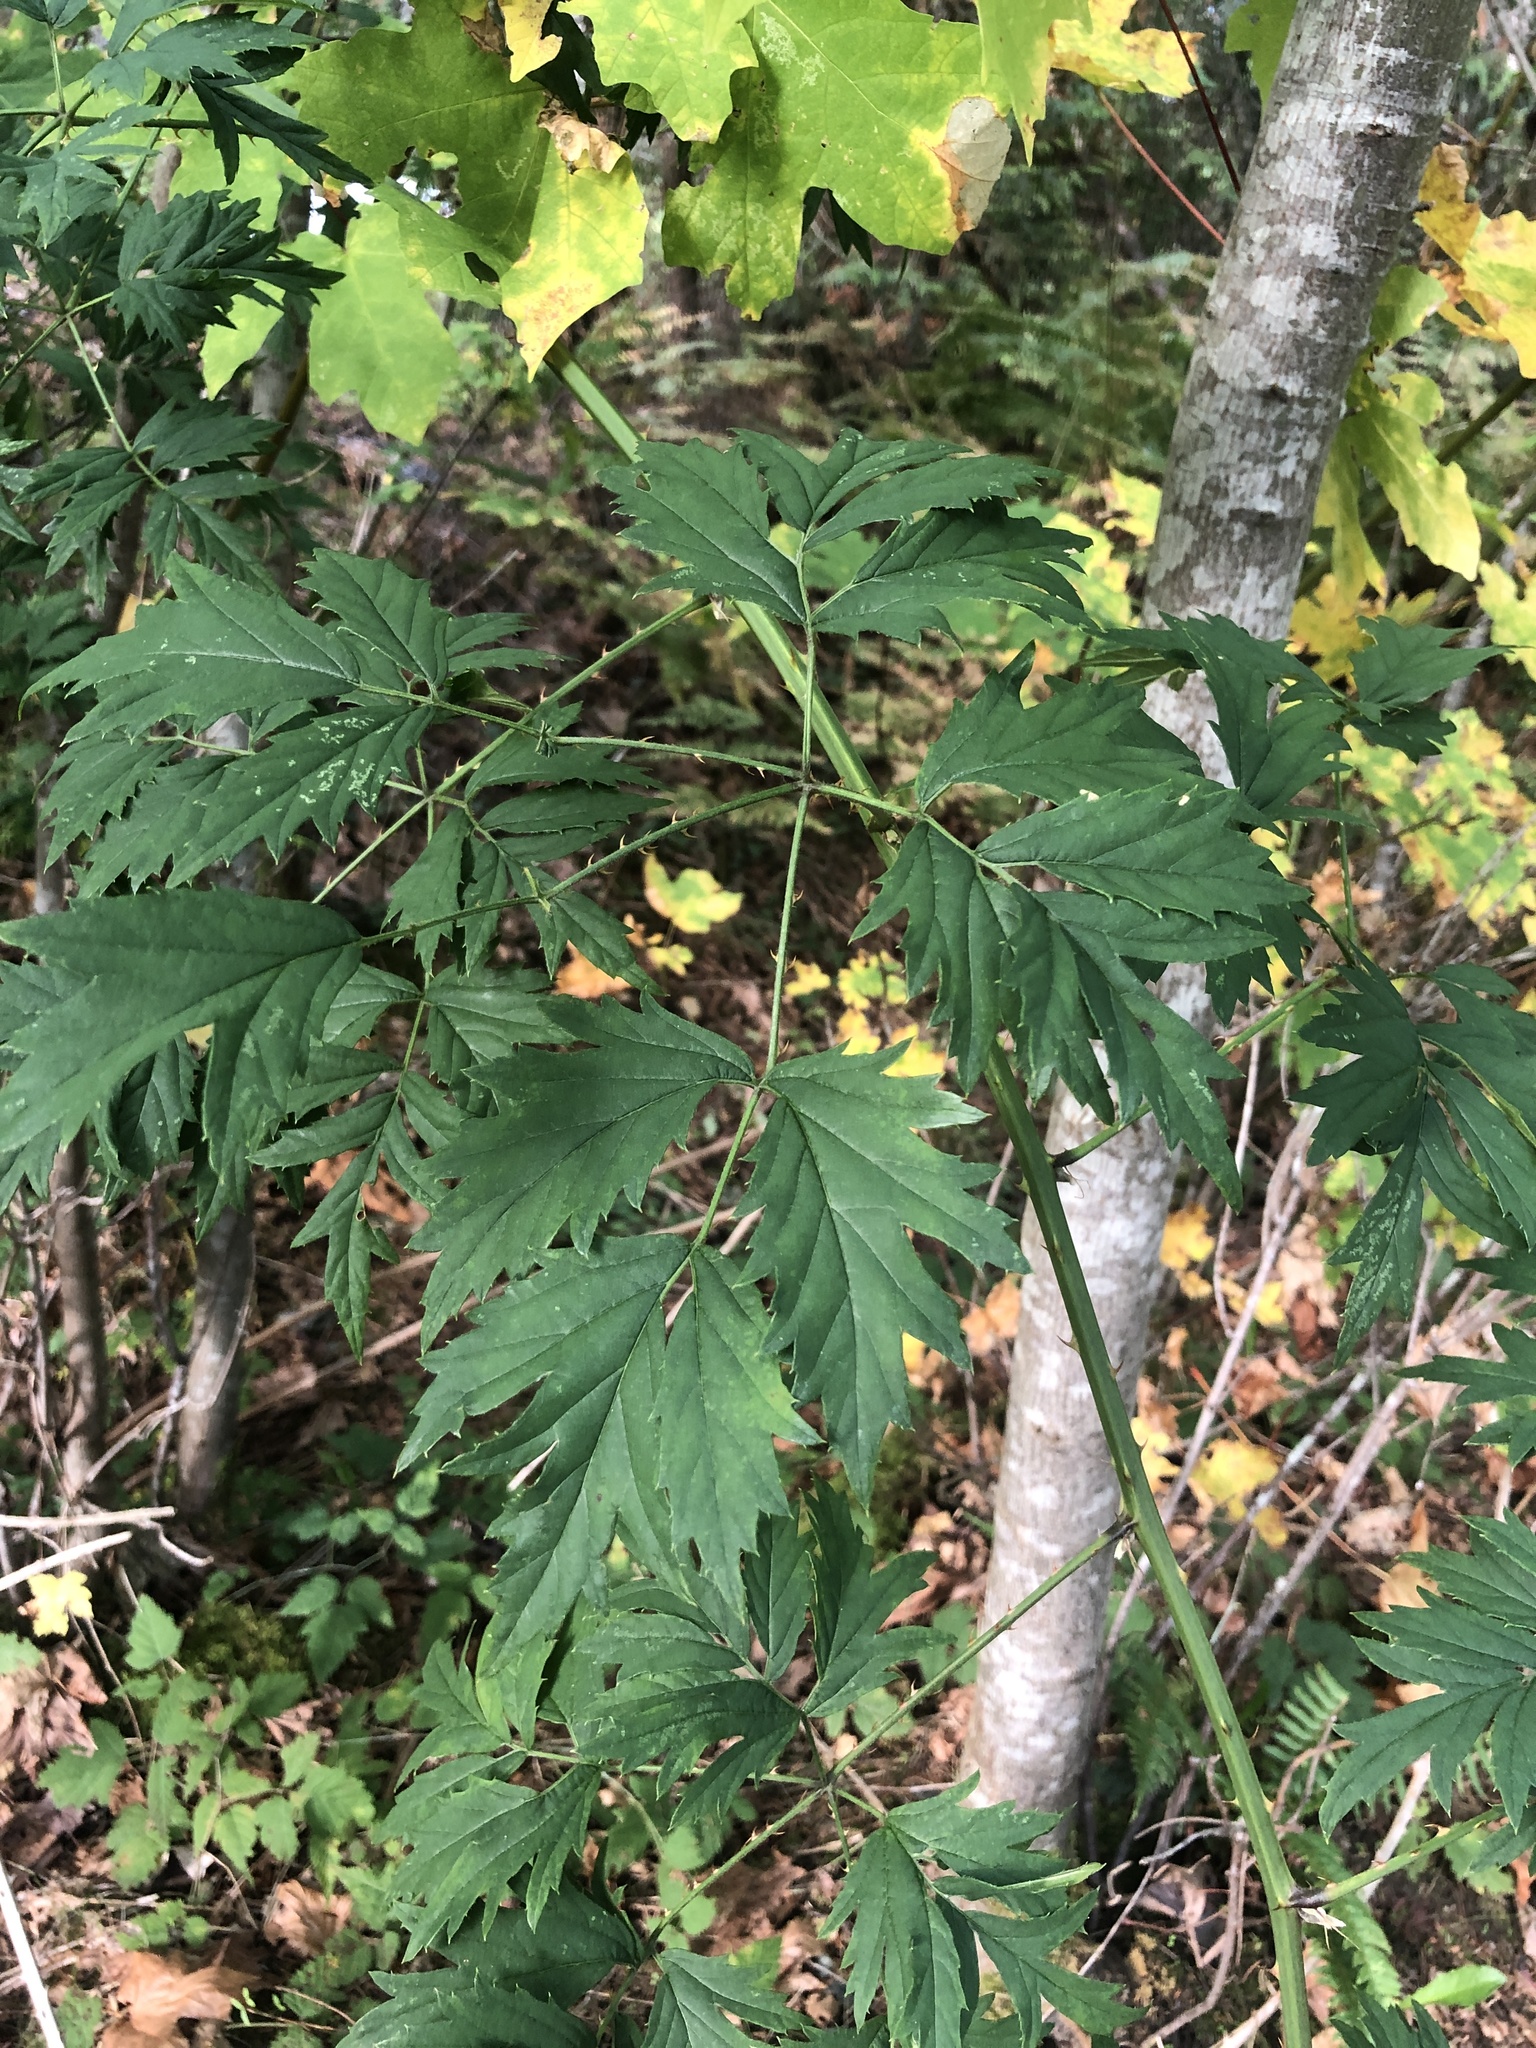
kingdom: Plantae
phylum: Tracheophyta
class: Magnoliopsida
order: Rosales
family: Rosaceae
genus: Rubus
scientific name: Rubus laciniatus
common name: Evergreen blackberry
